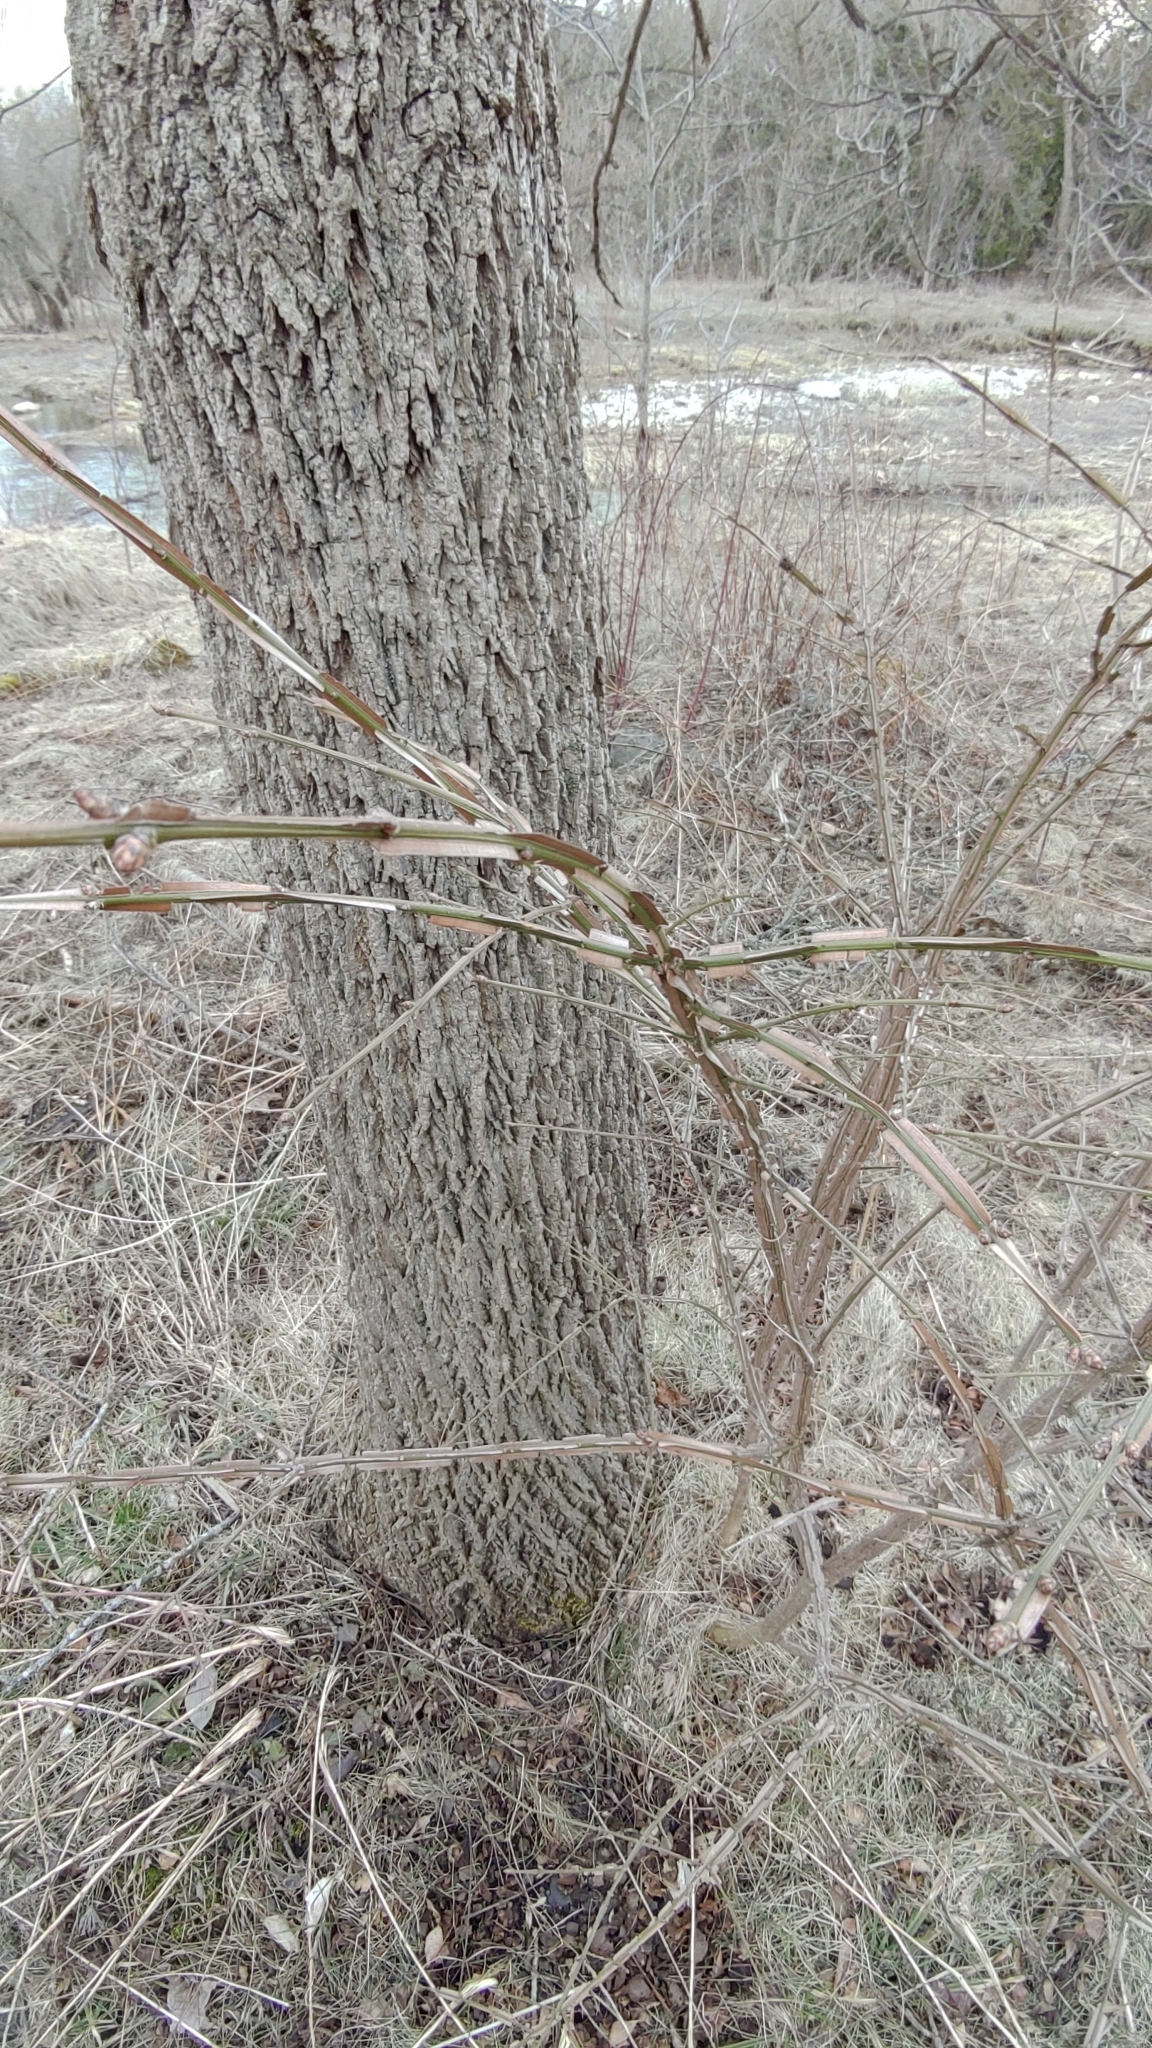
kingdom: Plantae
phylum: Tracheophyta
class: Magnoliopsida
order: Celastrales
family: Celastraceae
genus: Euonymus
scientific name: Euonymus alatus
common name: Winged euonymus
